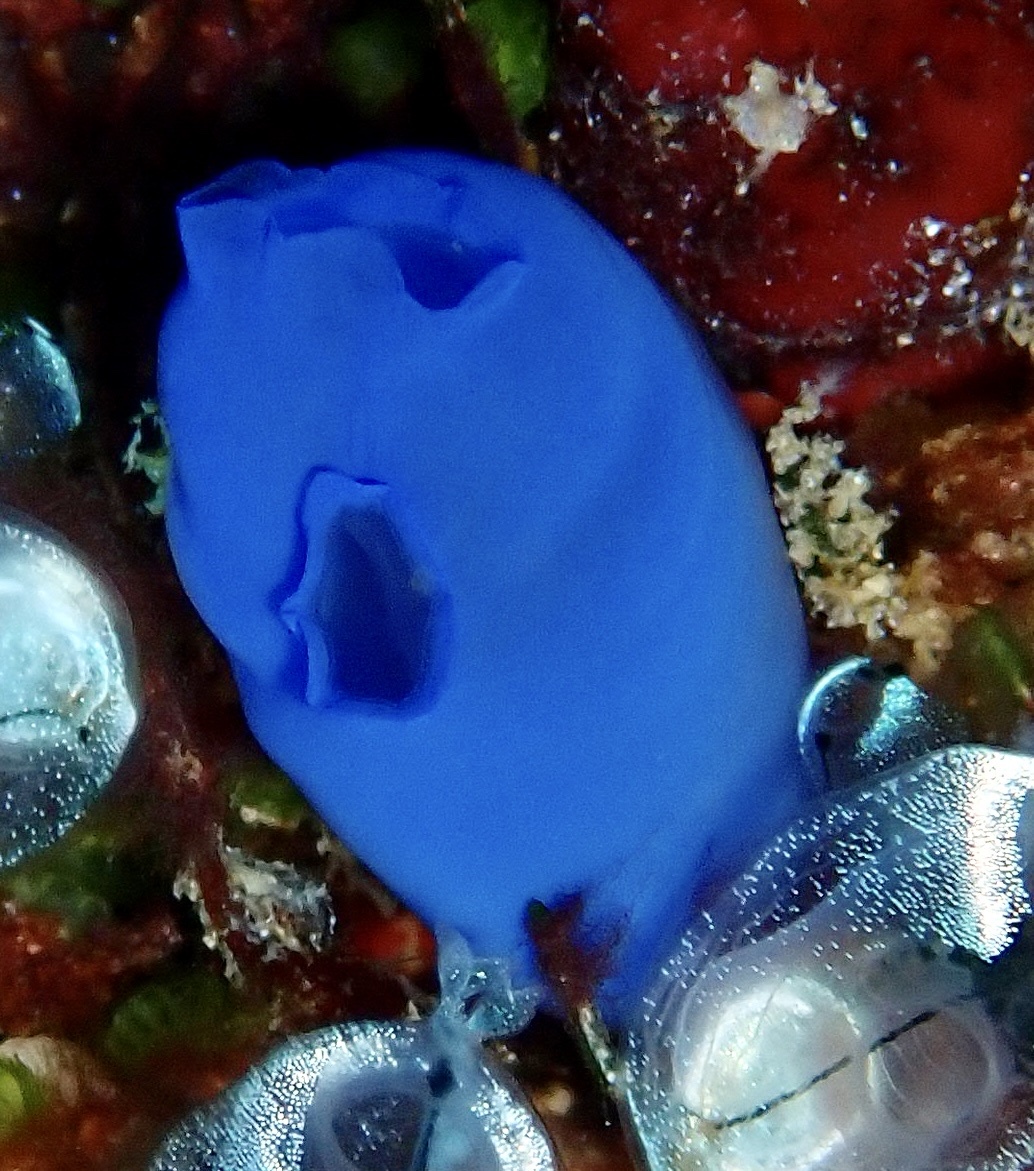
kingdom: Animalia
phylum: Chordata
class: Ascidiacea
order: Aplousobranchia
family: Diazonidae
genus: Rhopalaea
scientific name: Rhopalaea fusca
